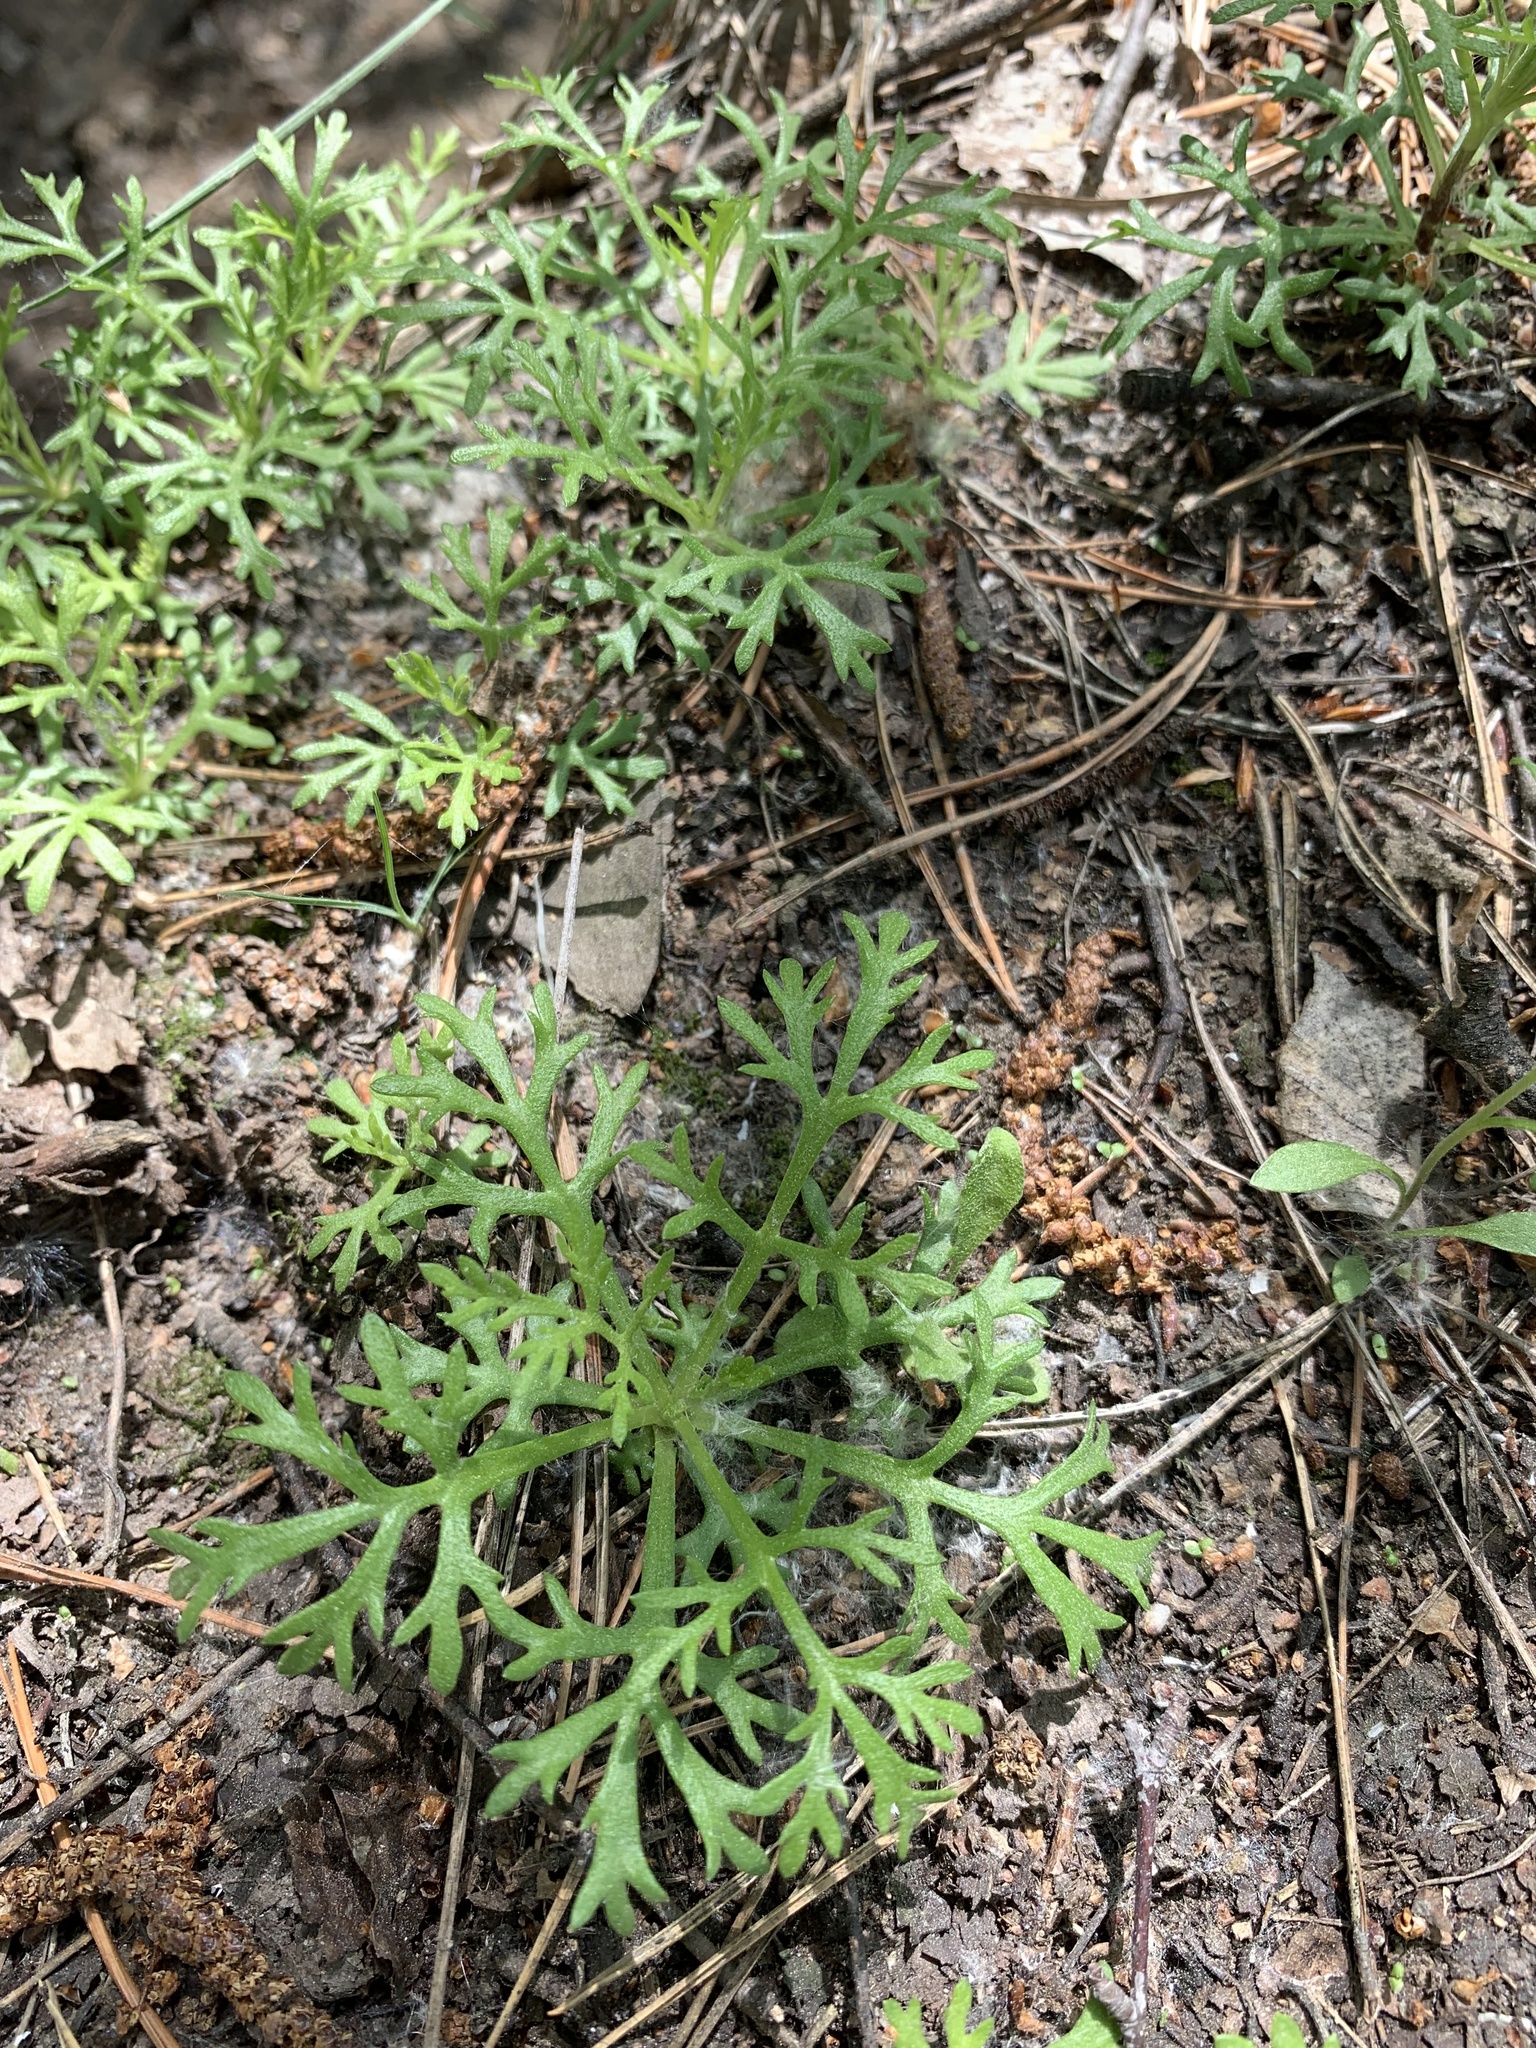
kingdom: Plantae
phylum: Tracheophyta
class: Magnoliopsida
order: Asterales
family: Asteraceae
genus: Chrysanthemum
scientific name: Chrysanthemum zawadzkii
